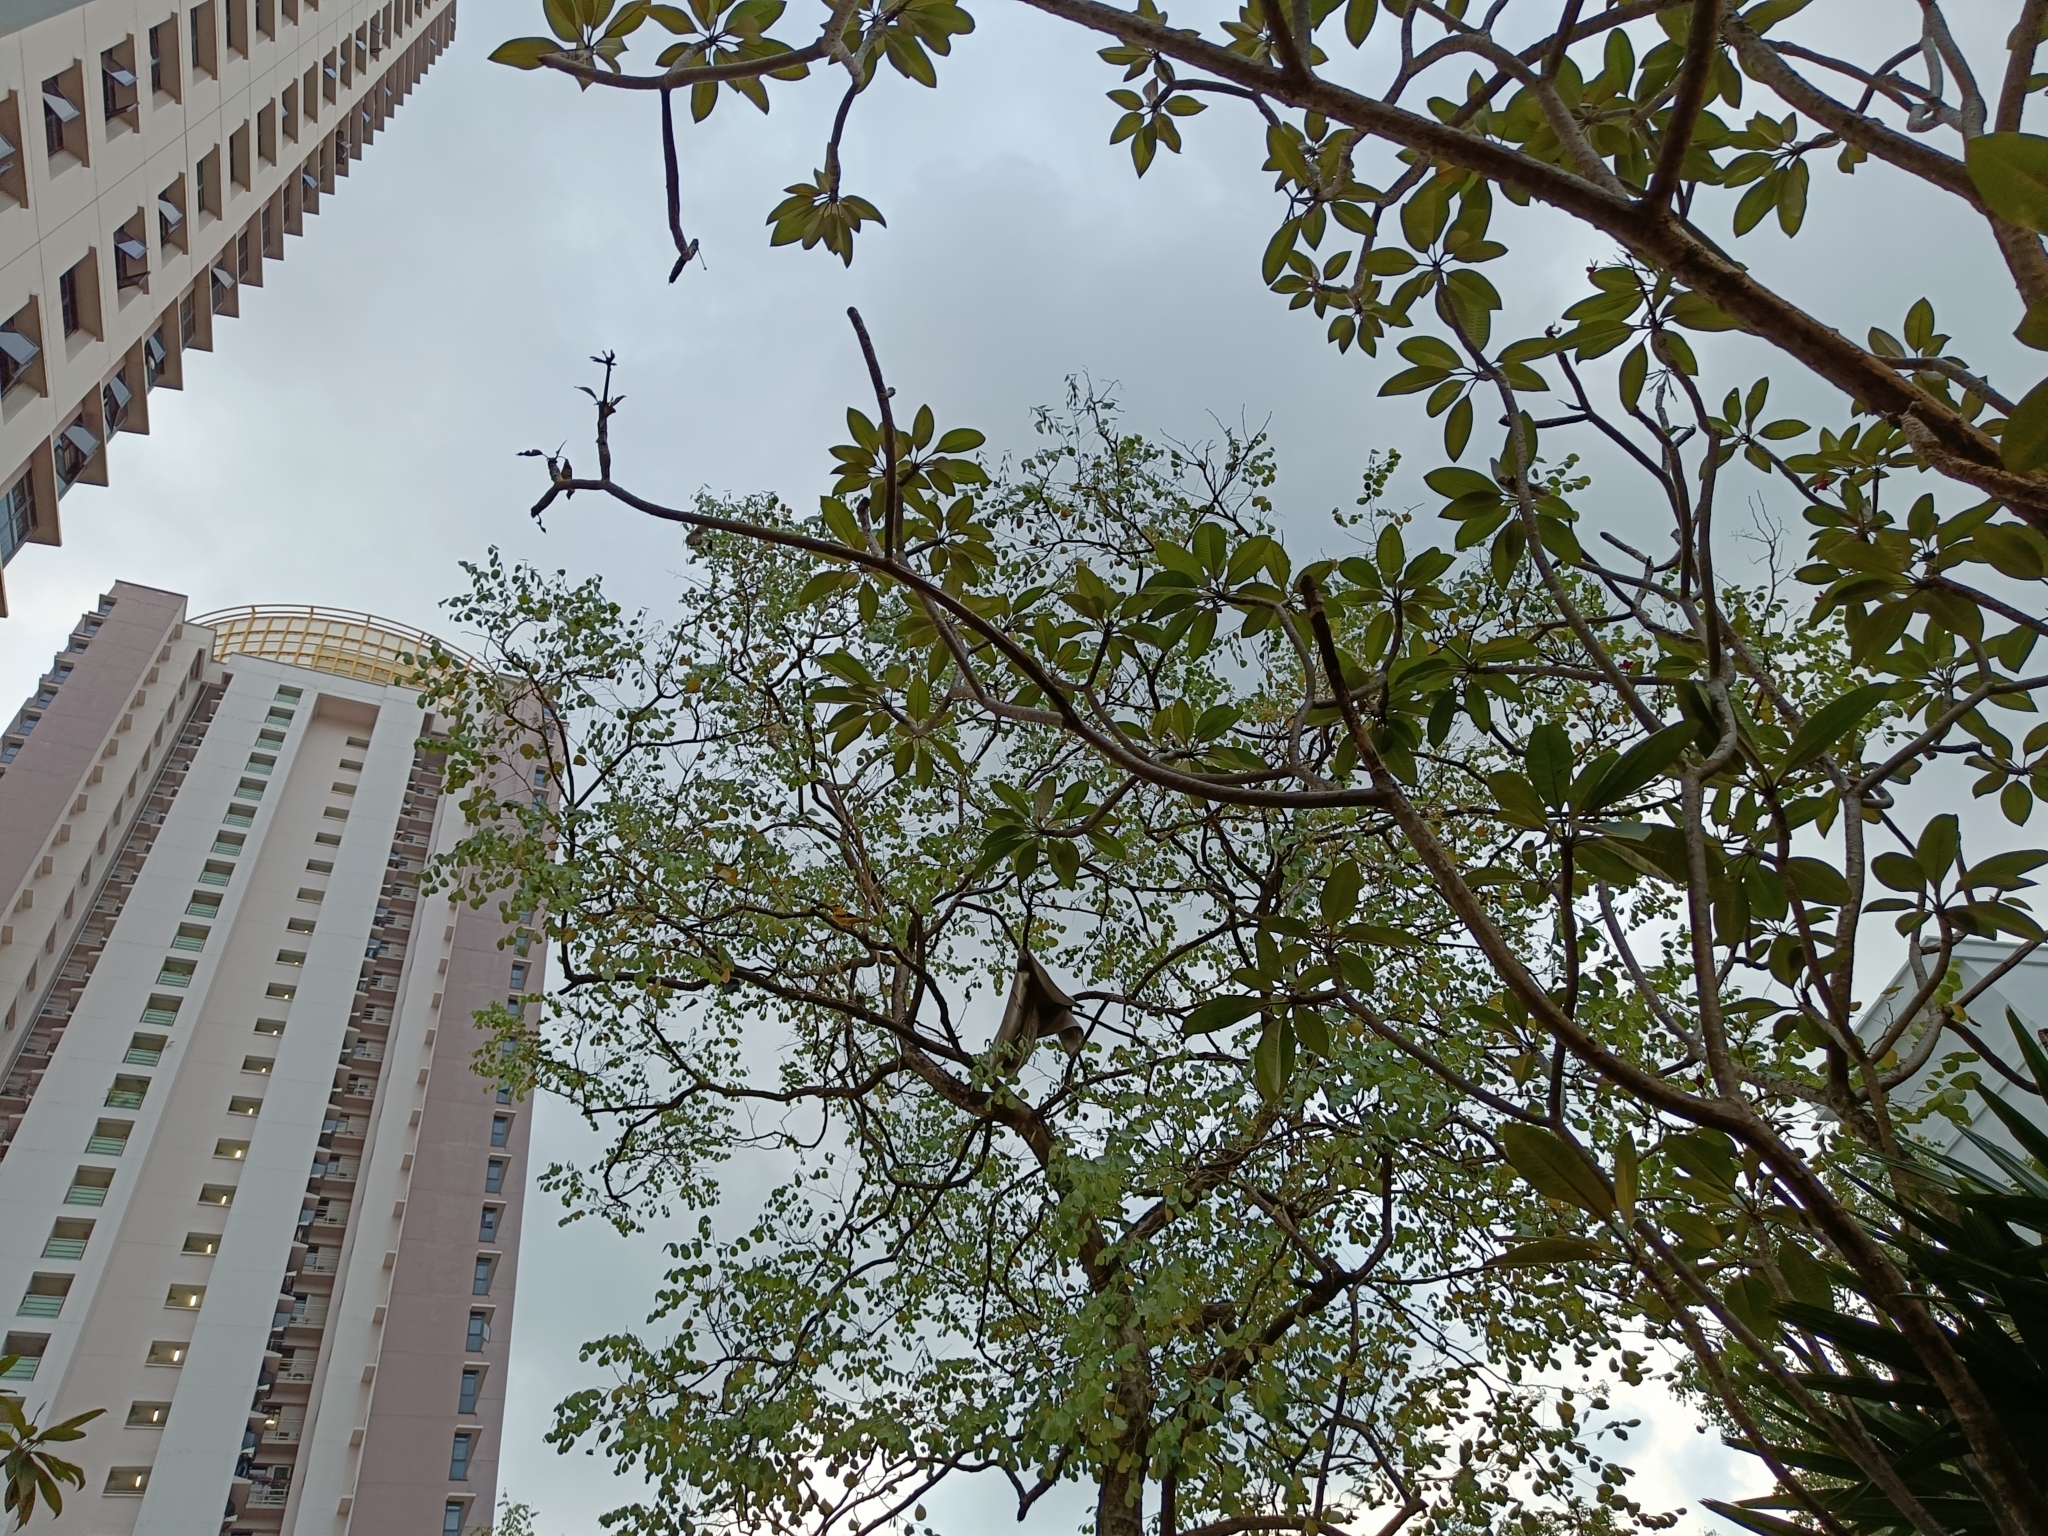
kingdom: Animalia
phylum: Chordata
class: Aves
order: Passeriformes
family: Oriolidae
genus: Oriolus
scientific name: Oriolus chinensis
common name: Black-naped oriole
